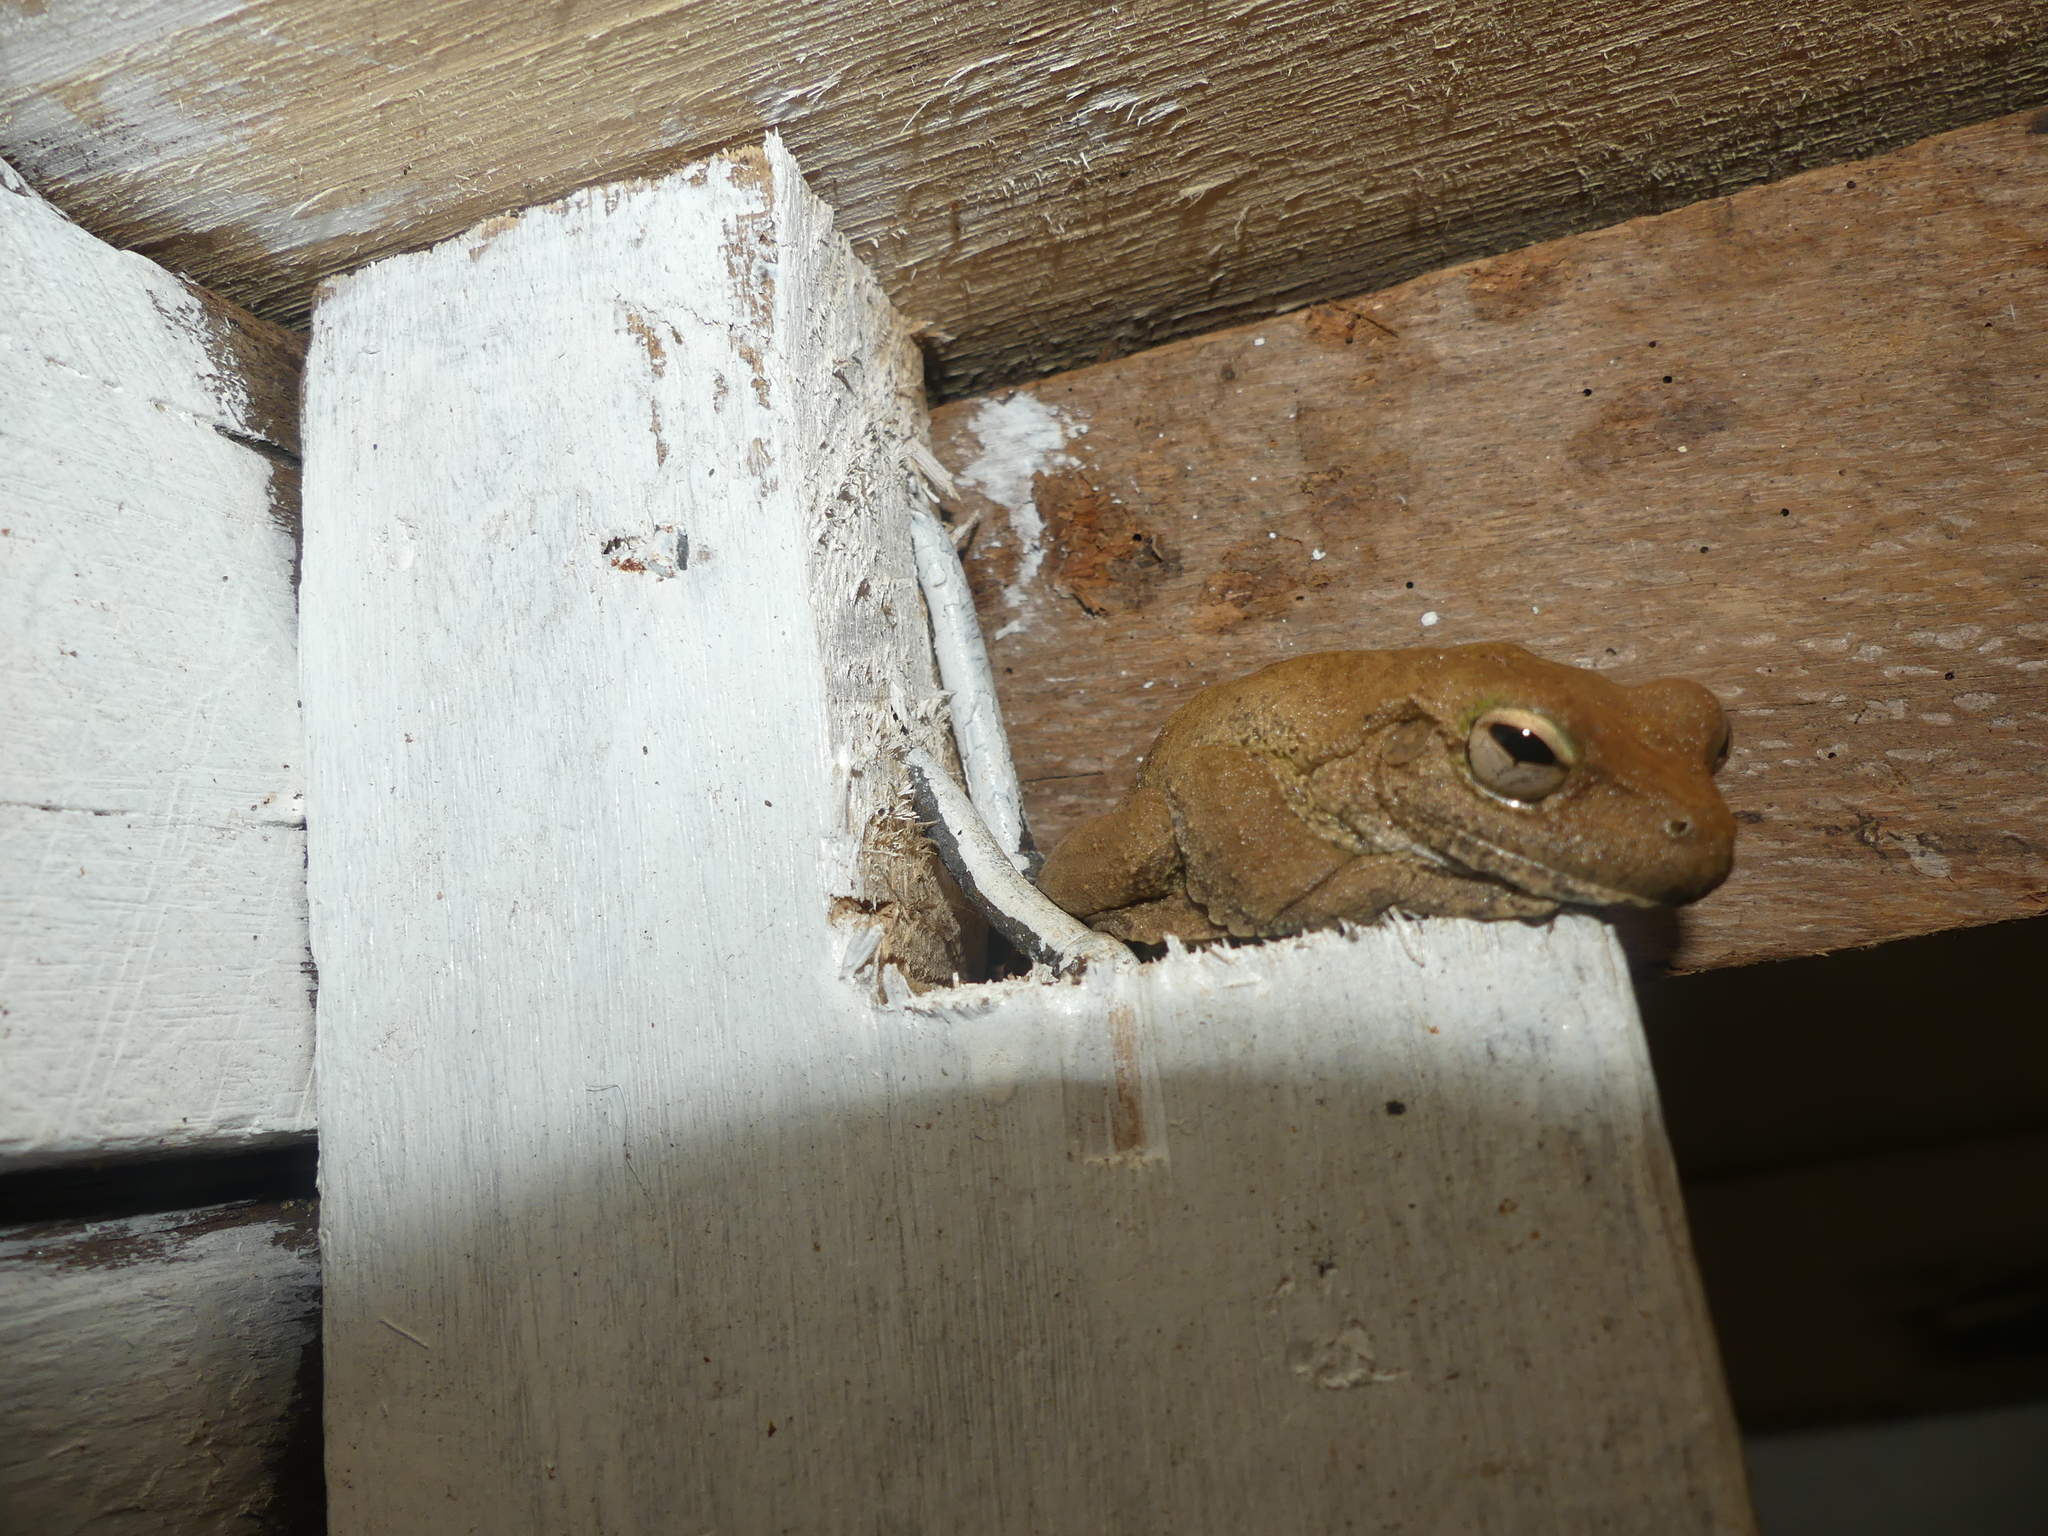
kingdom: Animalia
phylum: Chordata
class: Amphibia
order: Anura
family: Pelodryadidae
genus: Ranoidea
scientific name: Ranoidea serrata
